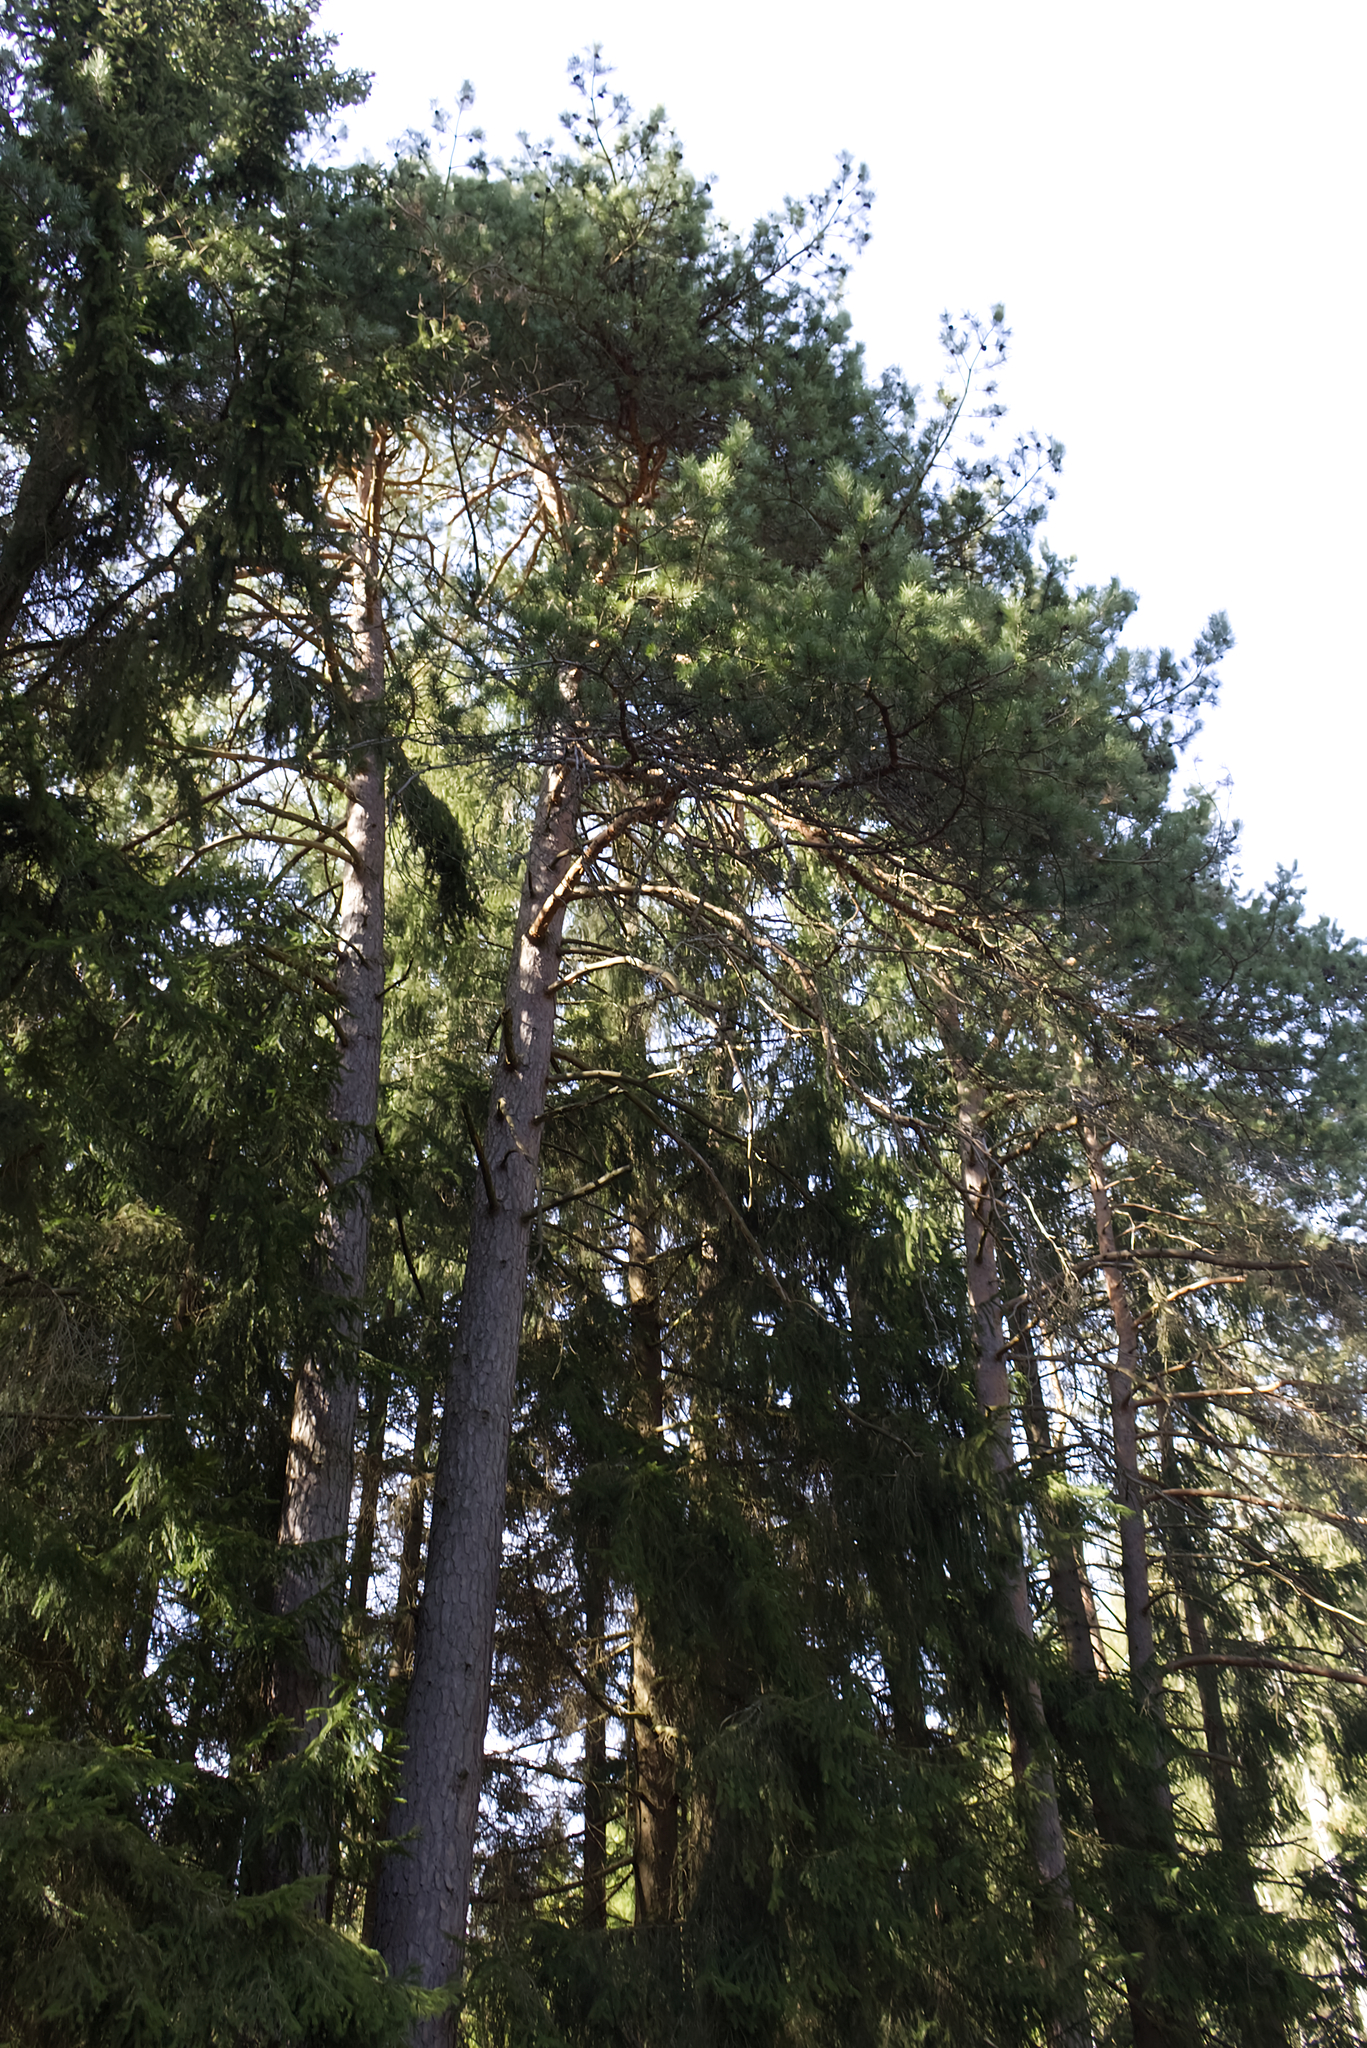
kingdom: Plantae
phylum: Tracheophyta
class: Pinopsida
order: Pinales
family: Pinaceae
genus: Pinus
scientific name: Pinus sylvestris
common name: Scots pine
